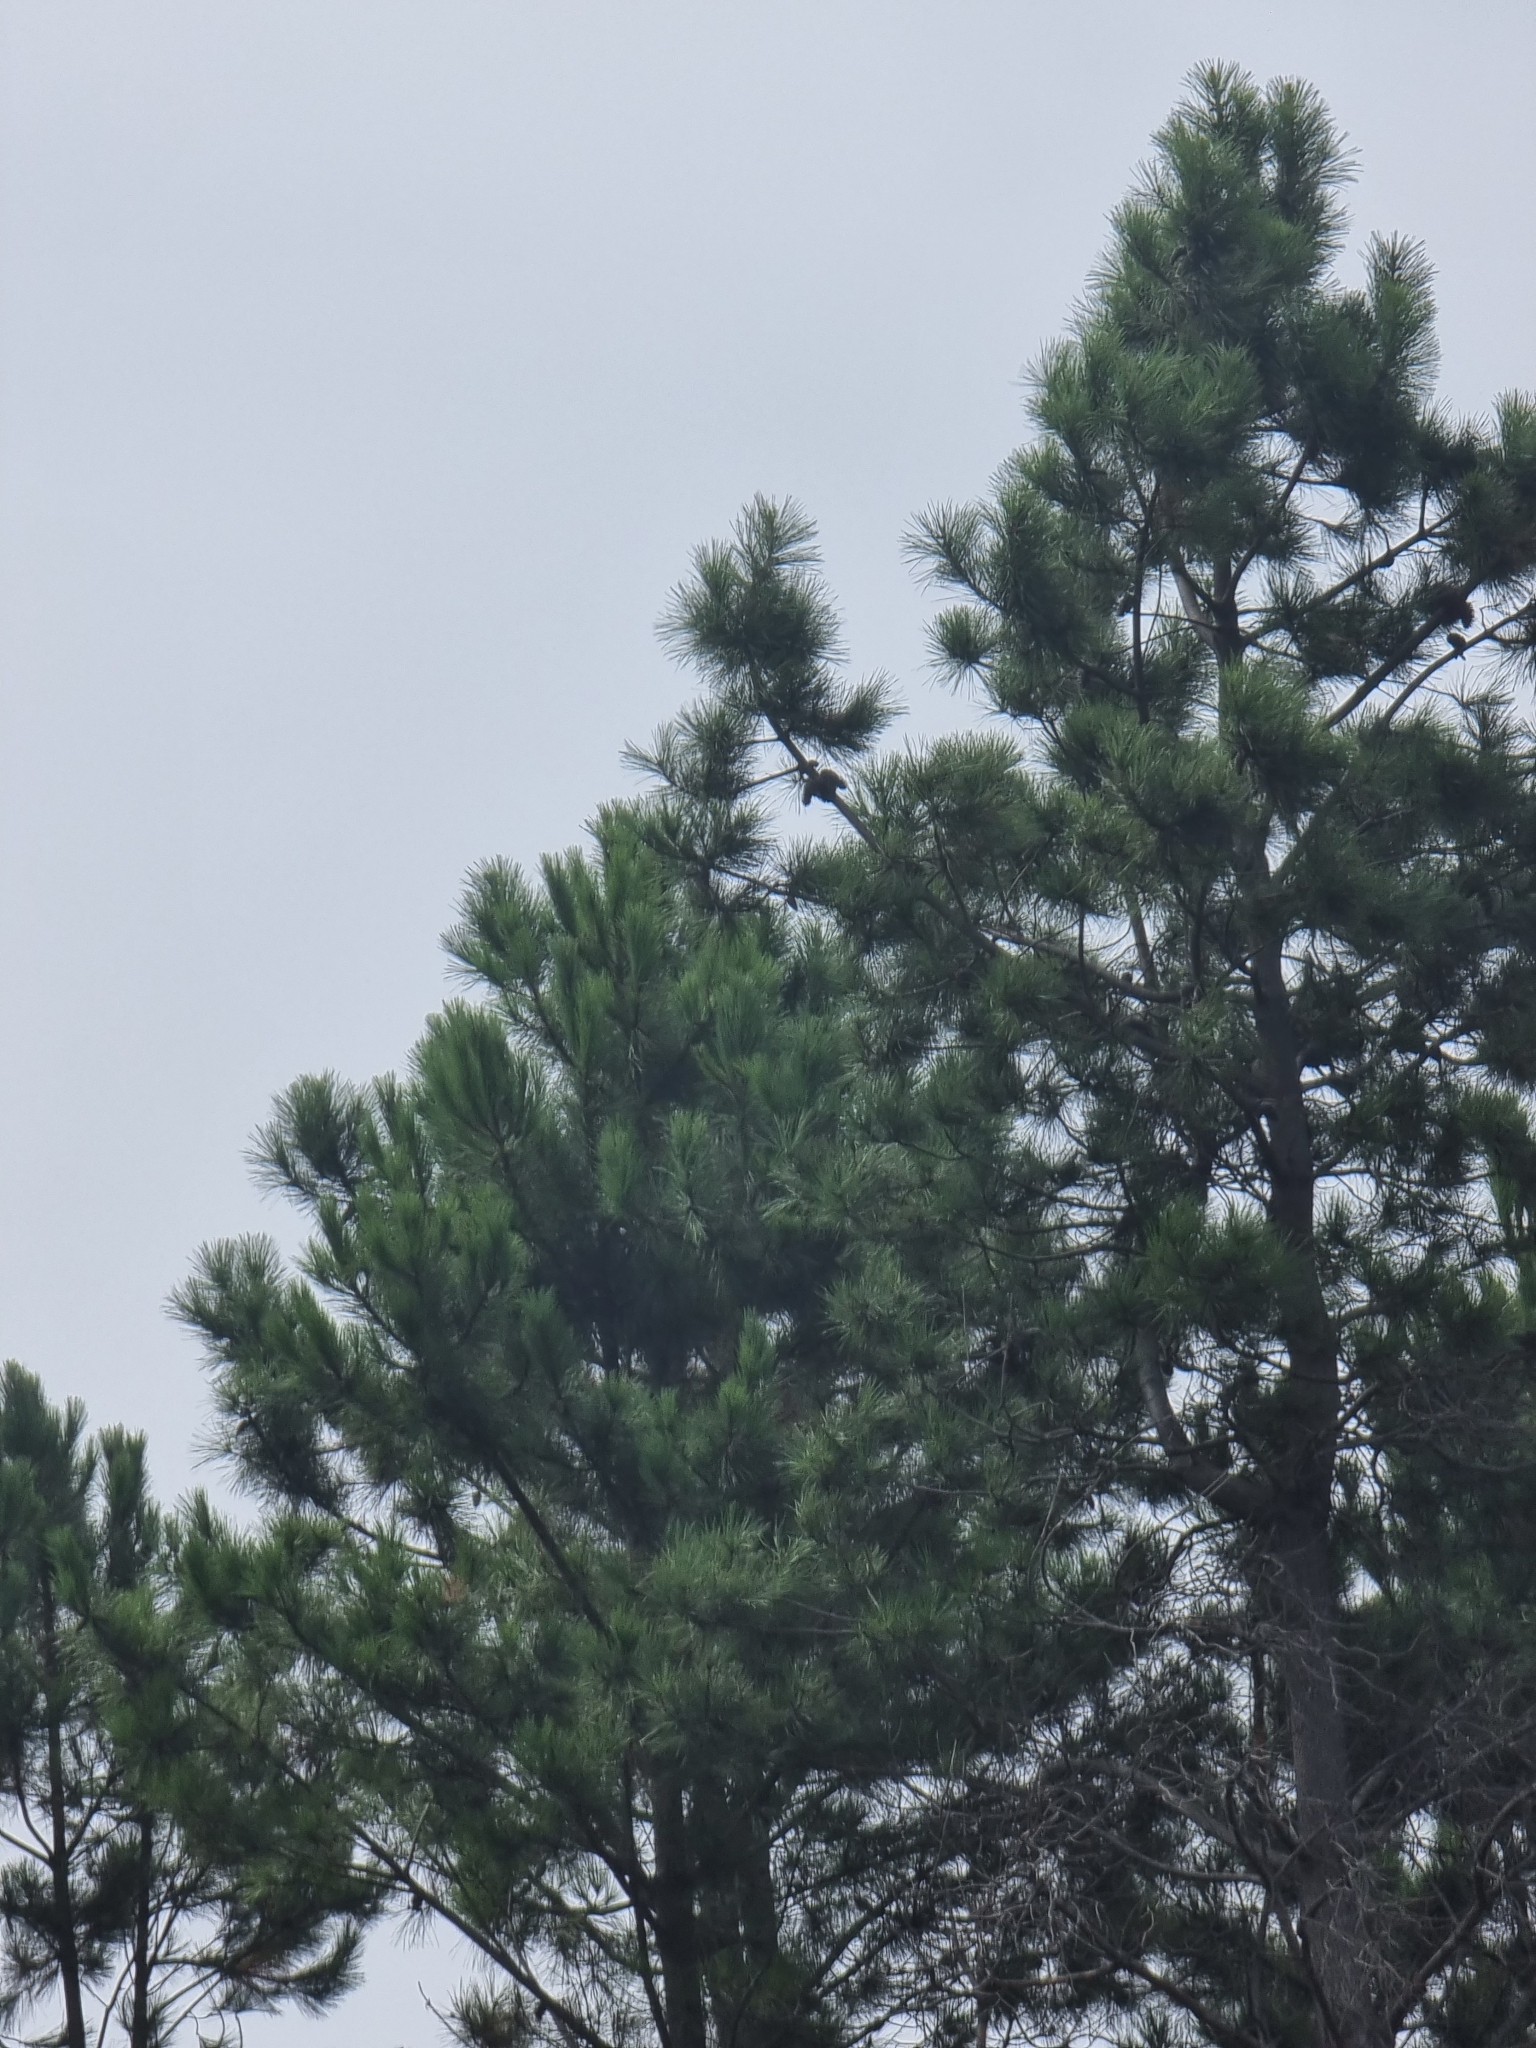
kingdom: Plantae
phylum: Tracheophyta
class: Pinopsida
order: Pinales
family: Pinaceae
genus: Pinus
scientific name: Pinus pinaster
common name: Maritime pine
